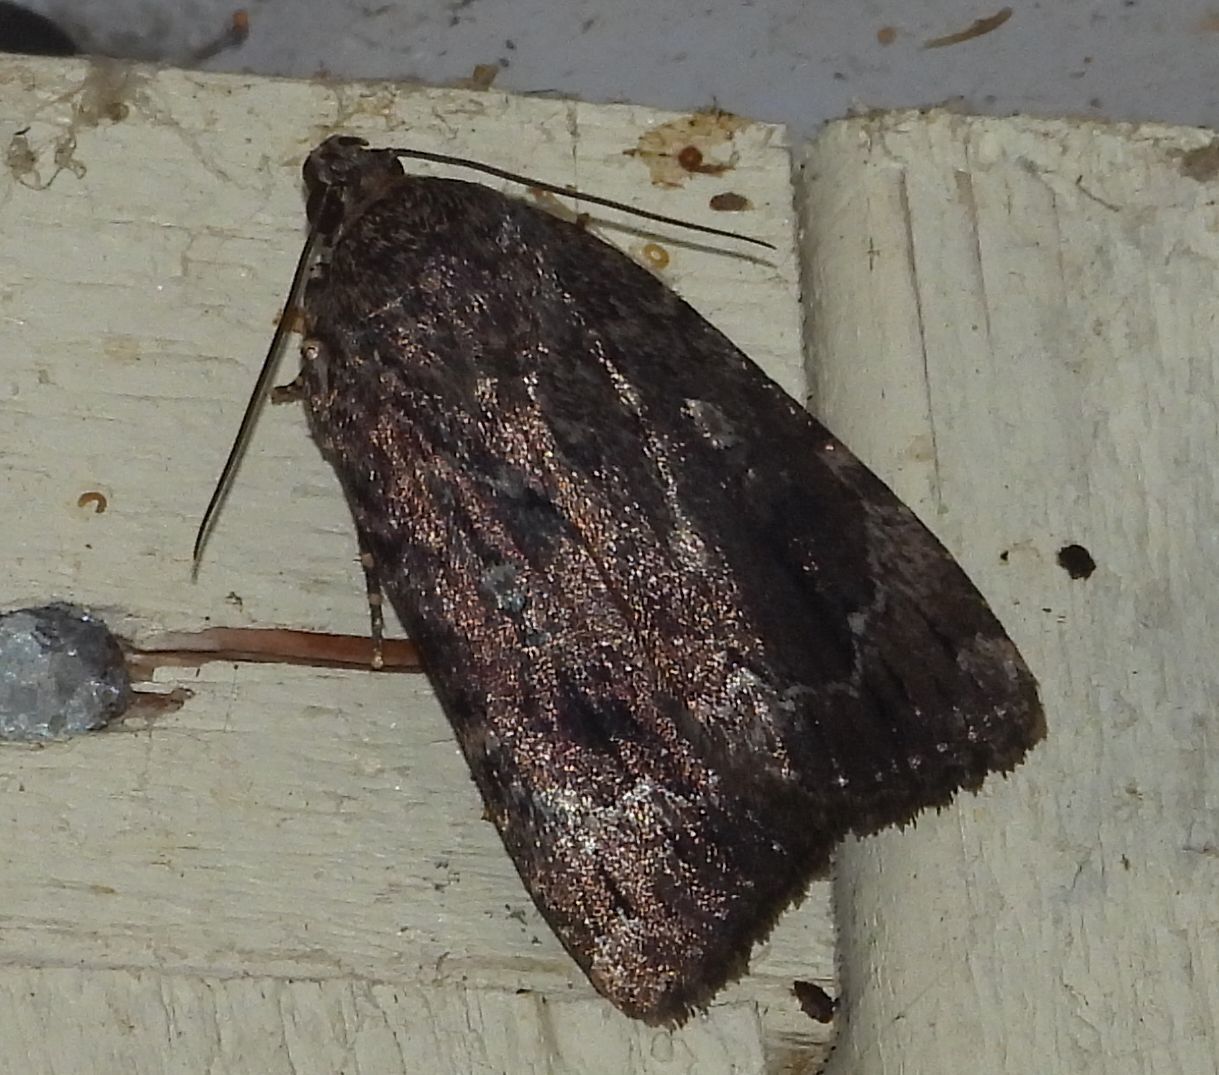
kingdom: Animalia
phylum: Arthropoda
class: Insecta
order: Lepidoptera
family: Noctuidae
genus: Amphipyra
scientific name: Amphipyra pyramidoides
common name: American copper underwing
